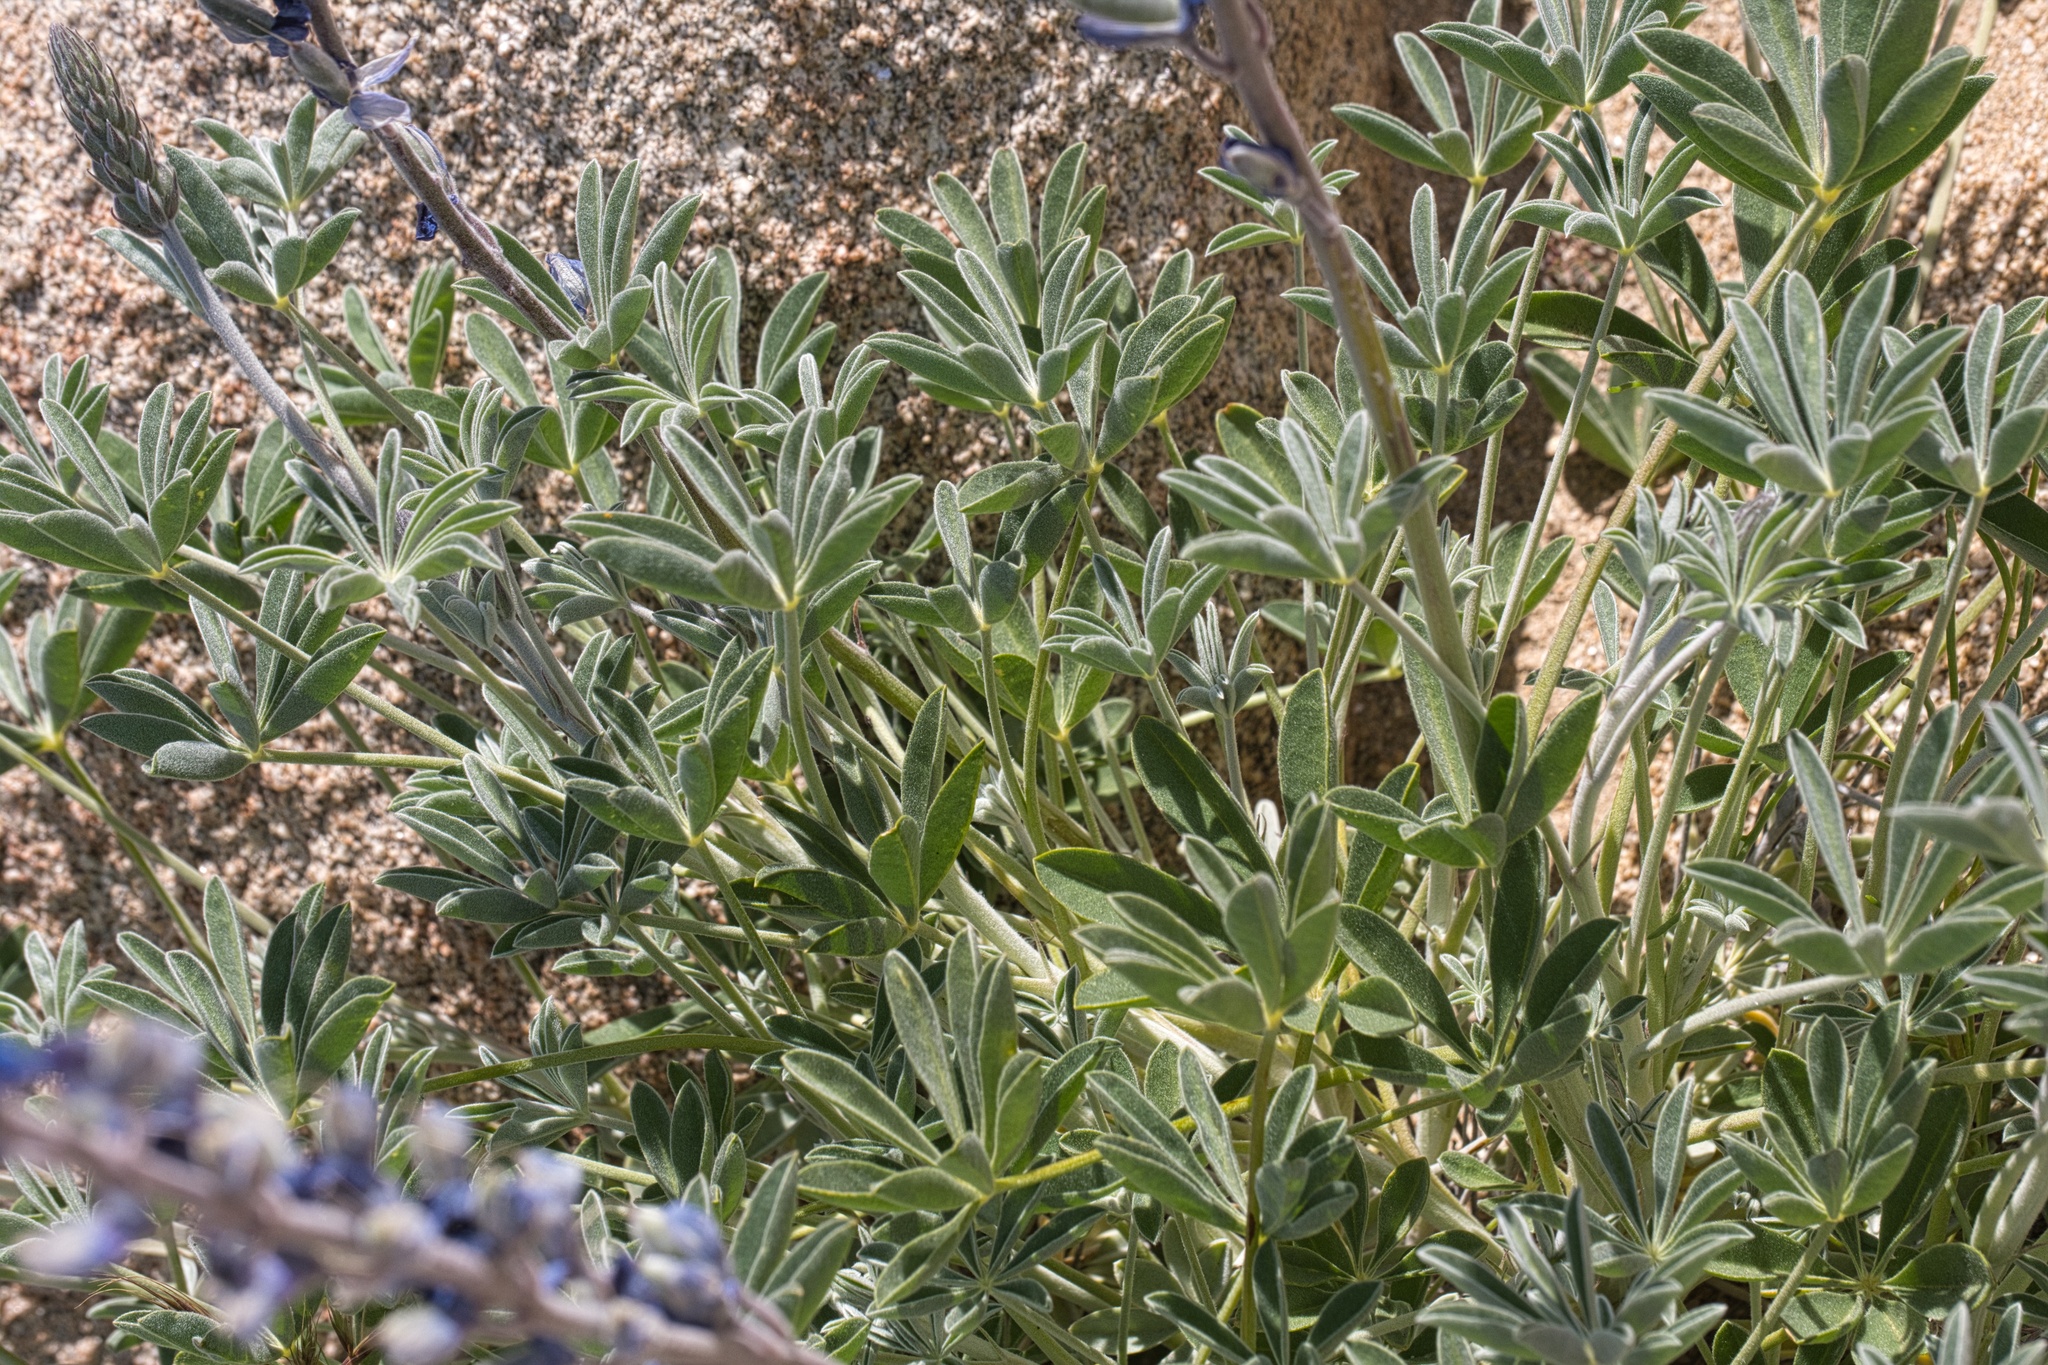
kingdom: Plantae
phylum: Tracheophyta
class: Magnoliopsida
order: Fabales
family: Fabaceae
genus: Lupinus
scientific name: Lupinus excubitus
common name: Grape soda lupine
